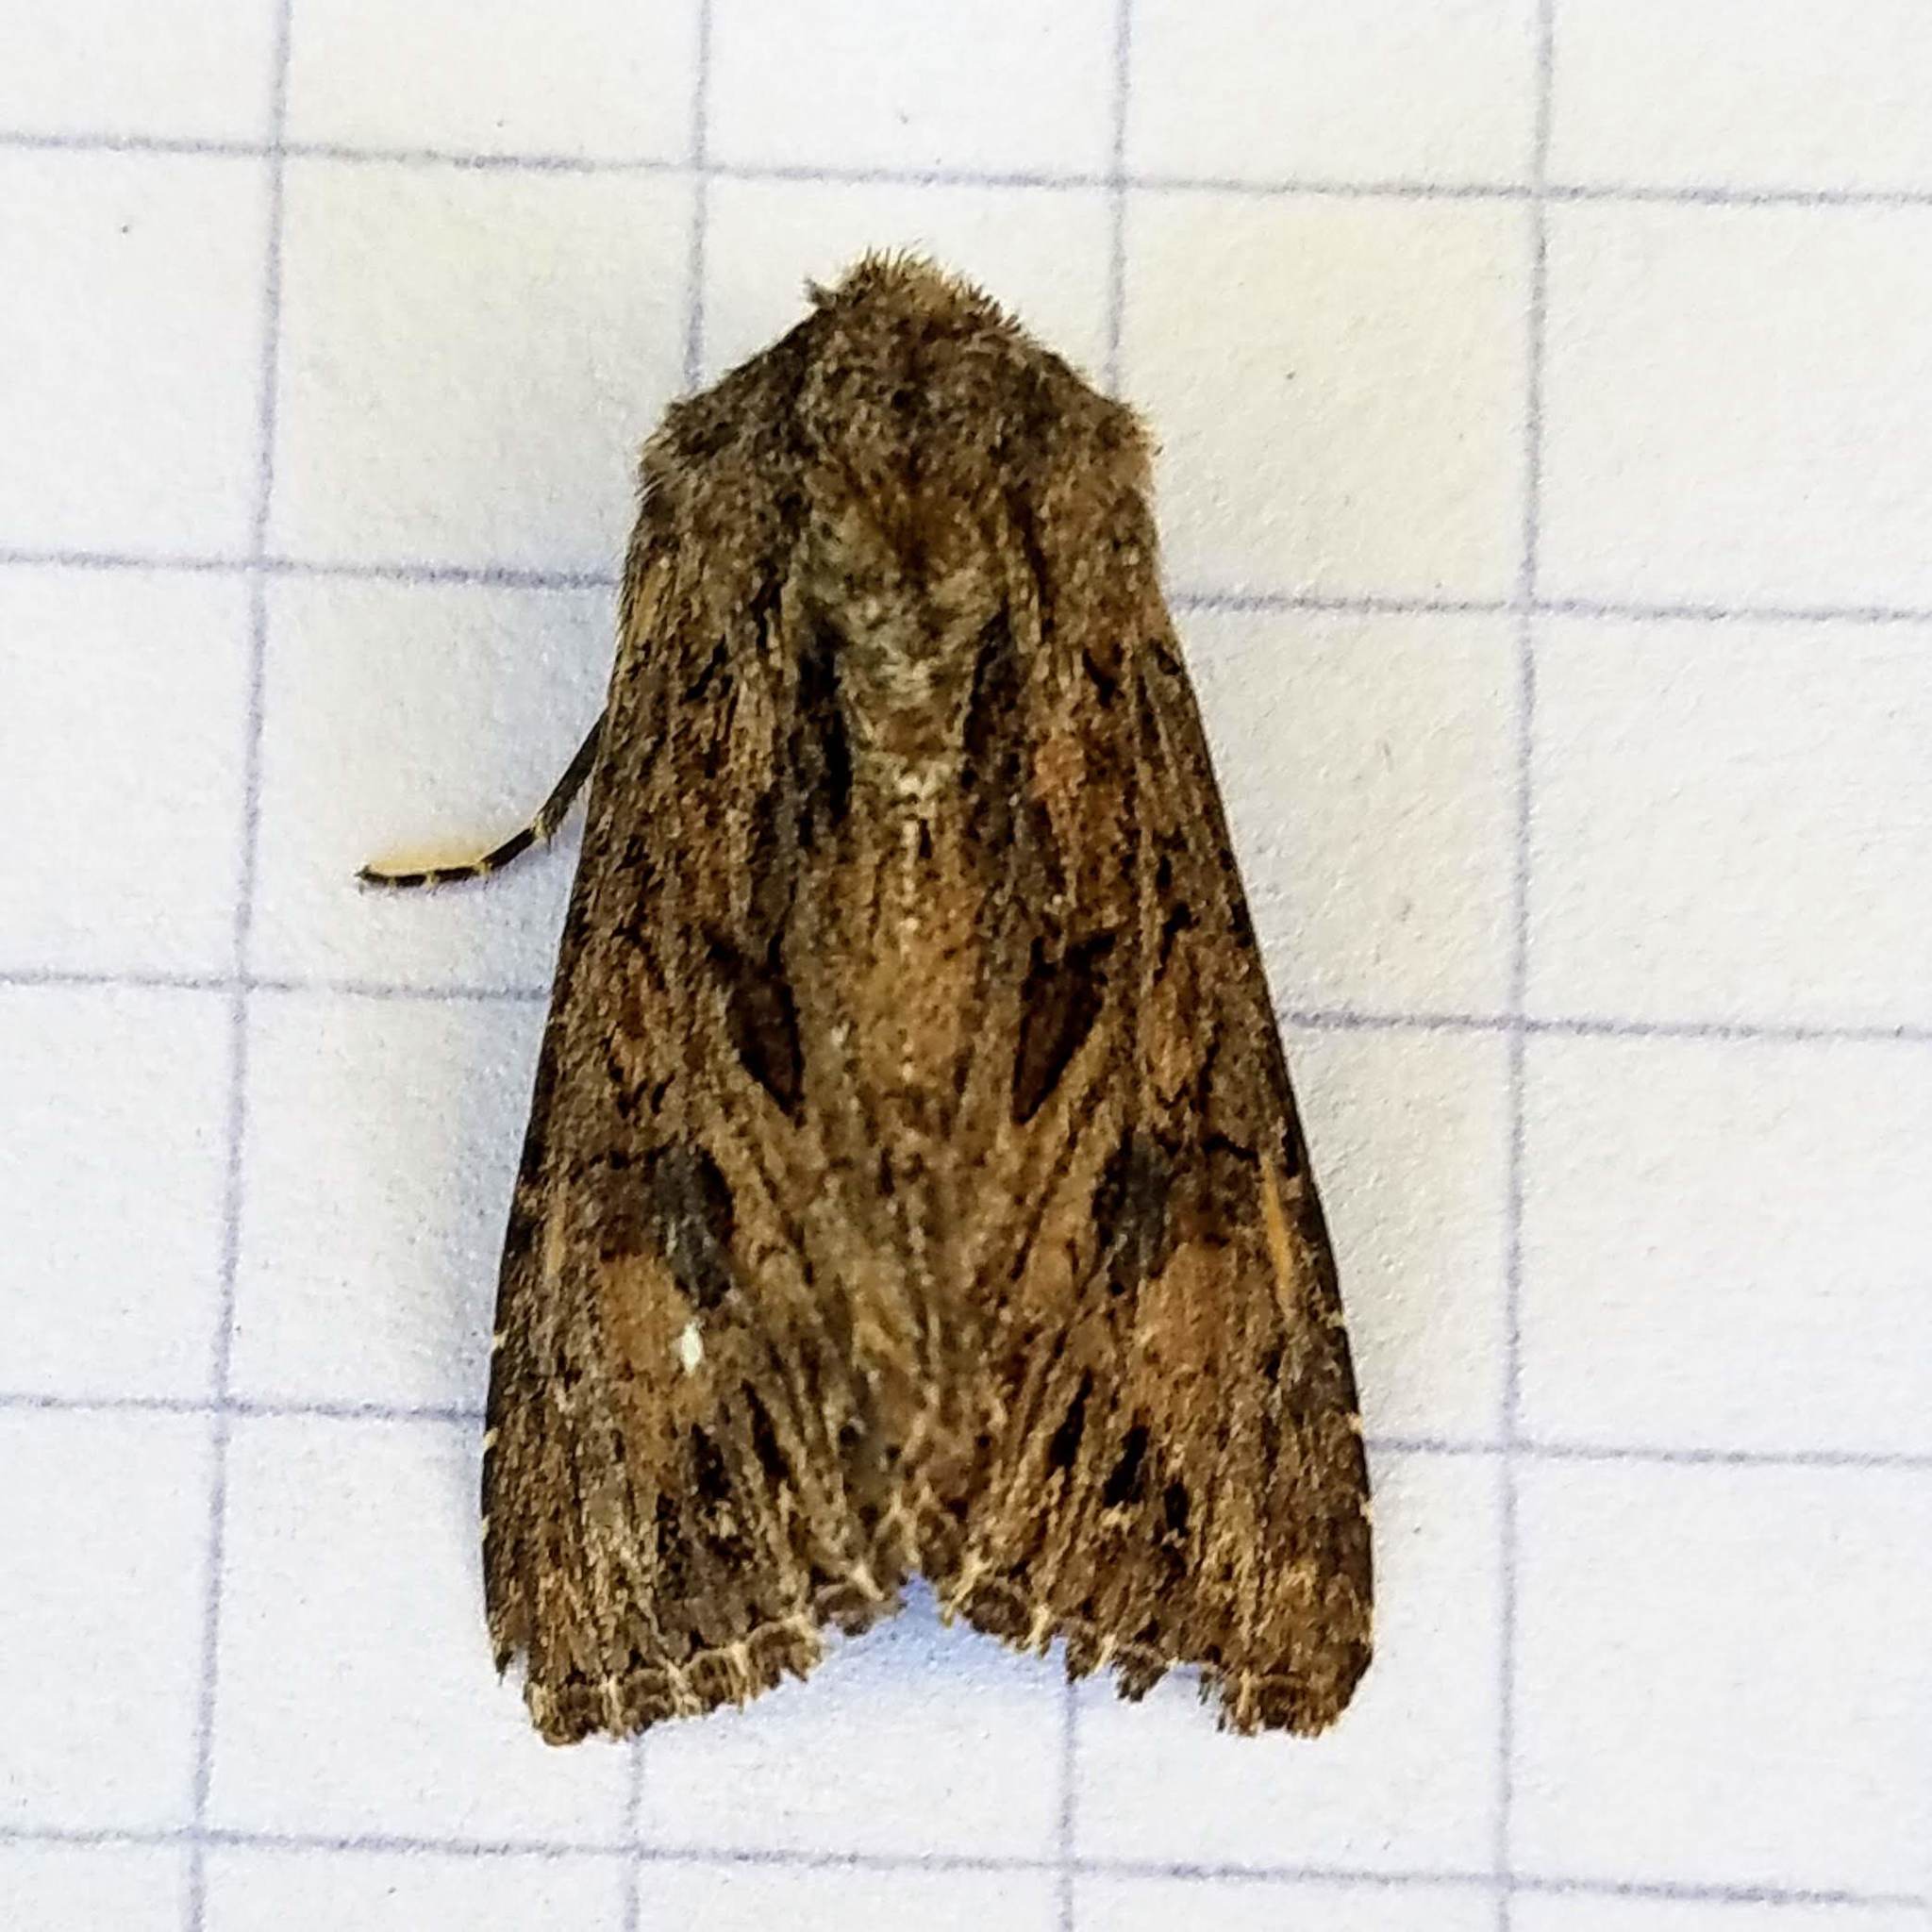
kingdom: Animalia
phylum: Arthropoda
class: Insecta
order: Lepidoptera
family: Noctuidae
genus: Anarta
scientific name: Anarta crotchii
